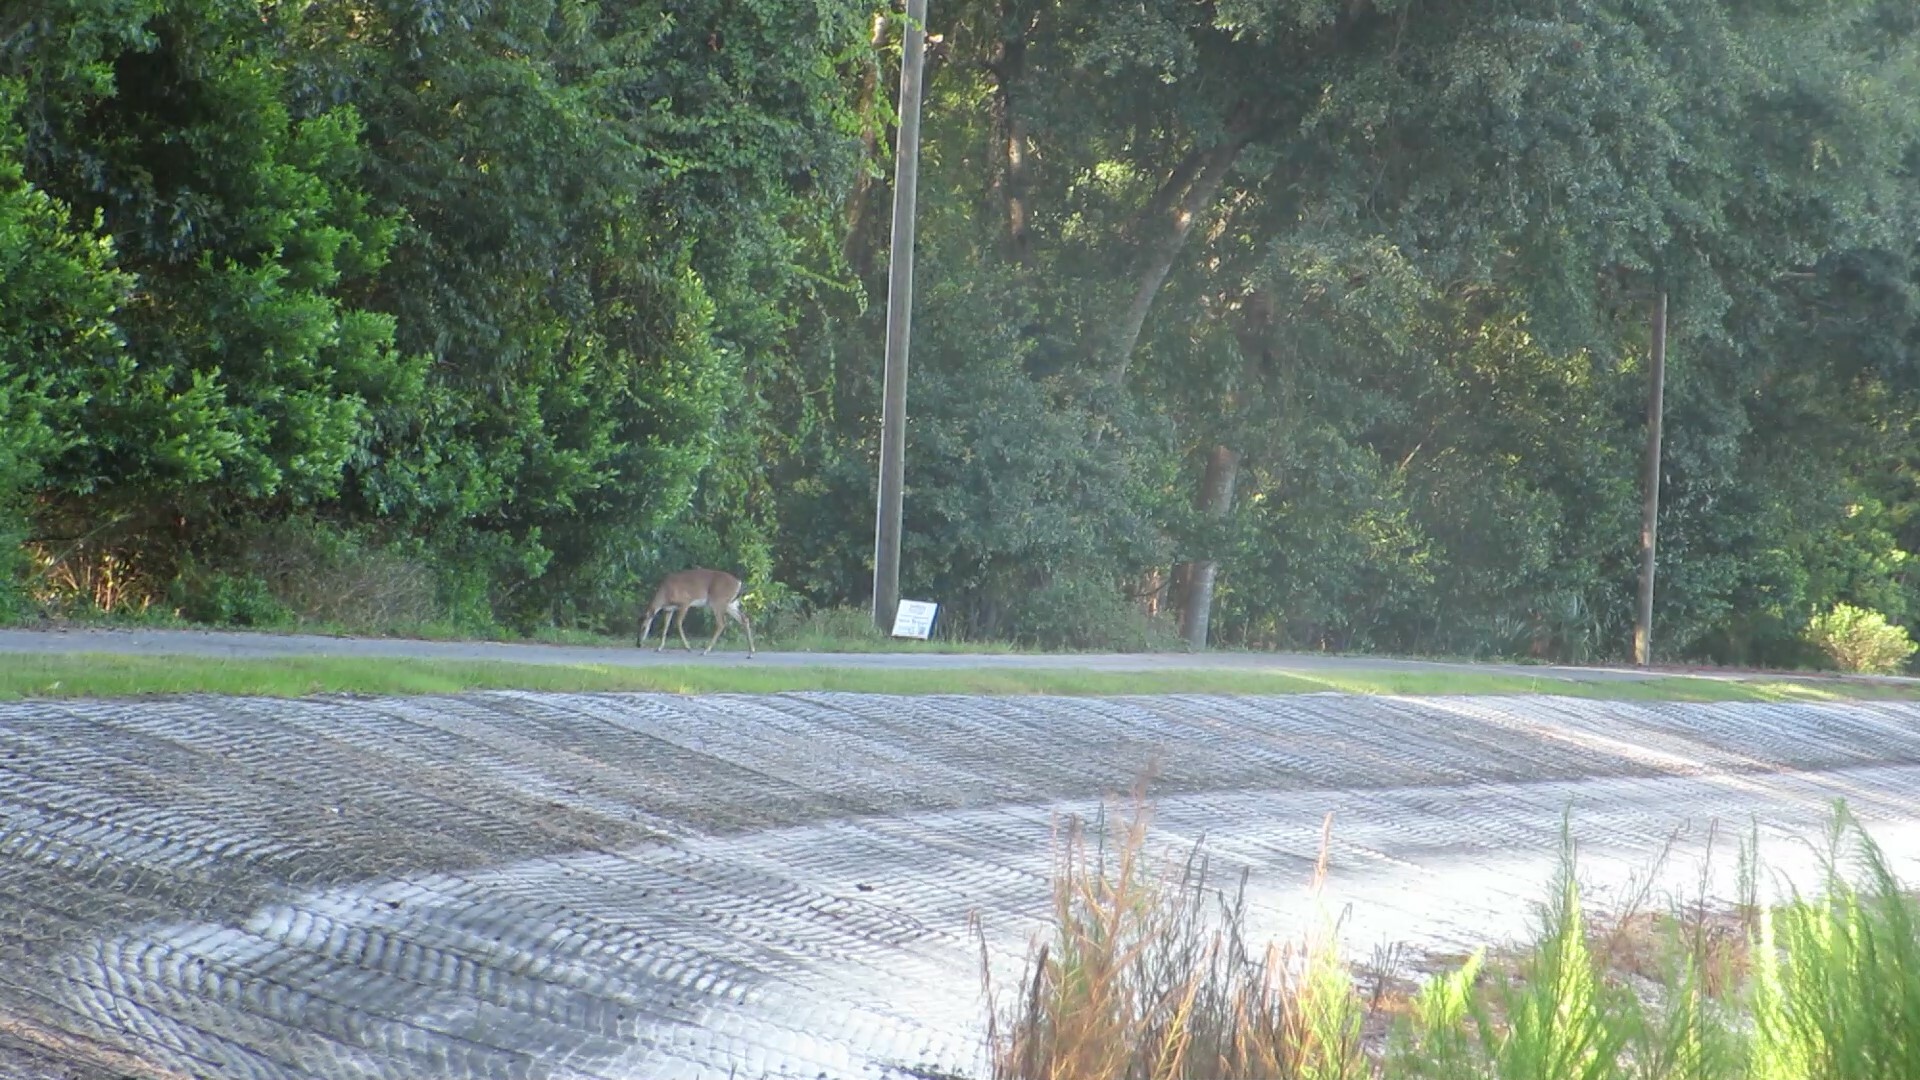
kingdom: Animalia
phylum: Chordata
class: Mammalia
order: Artiodactyla
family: Cervidae
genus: Odocoileus
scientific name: Odocoileus virginianus
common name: White-tailed deer
